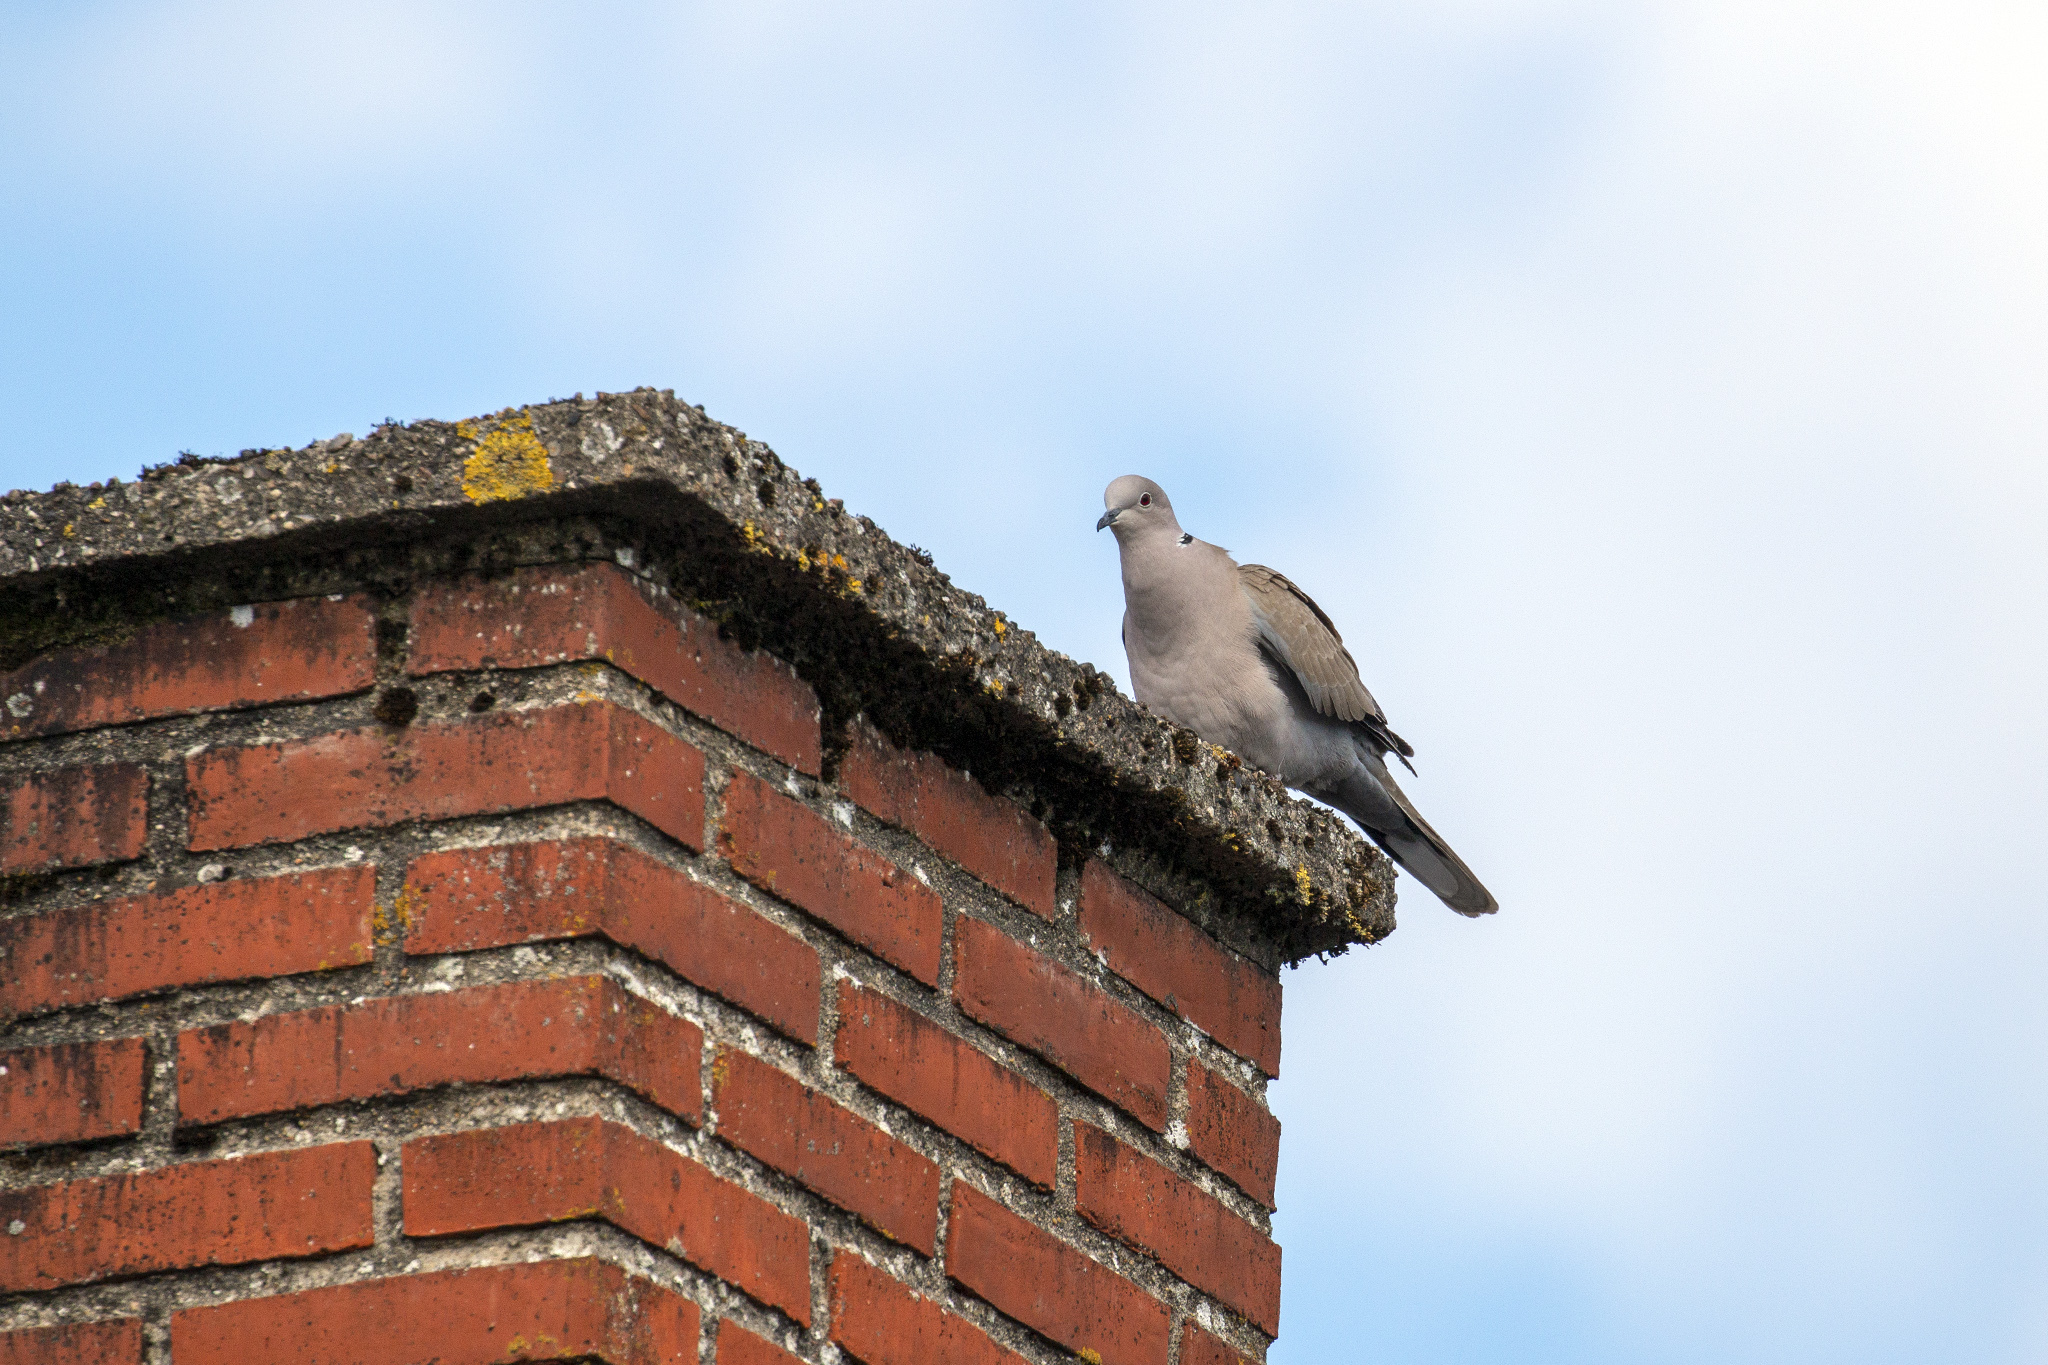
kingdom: Animalia
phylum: Chordata
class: Aves
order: Columbiformes
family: Columbidae
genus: Streptopelia
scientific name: Streptopelia decaocto
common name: Eurasian collared dove
